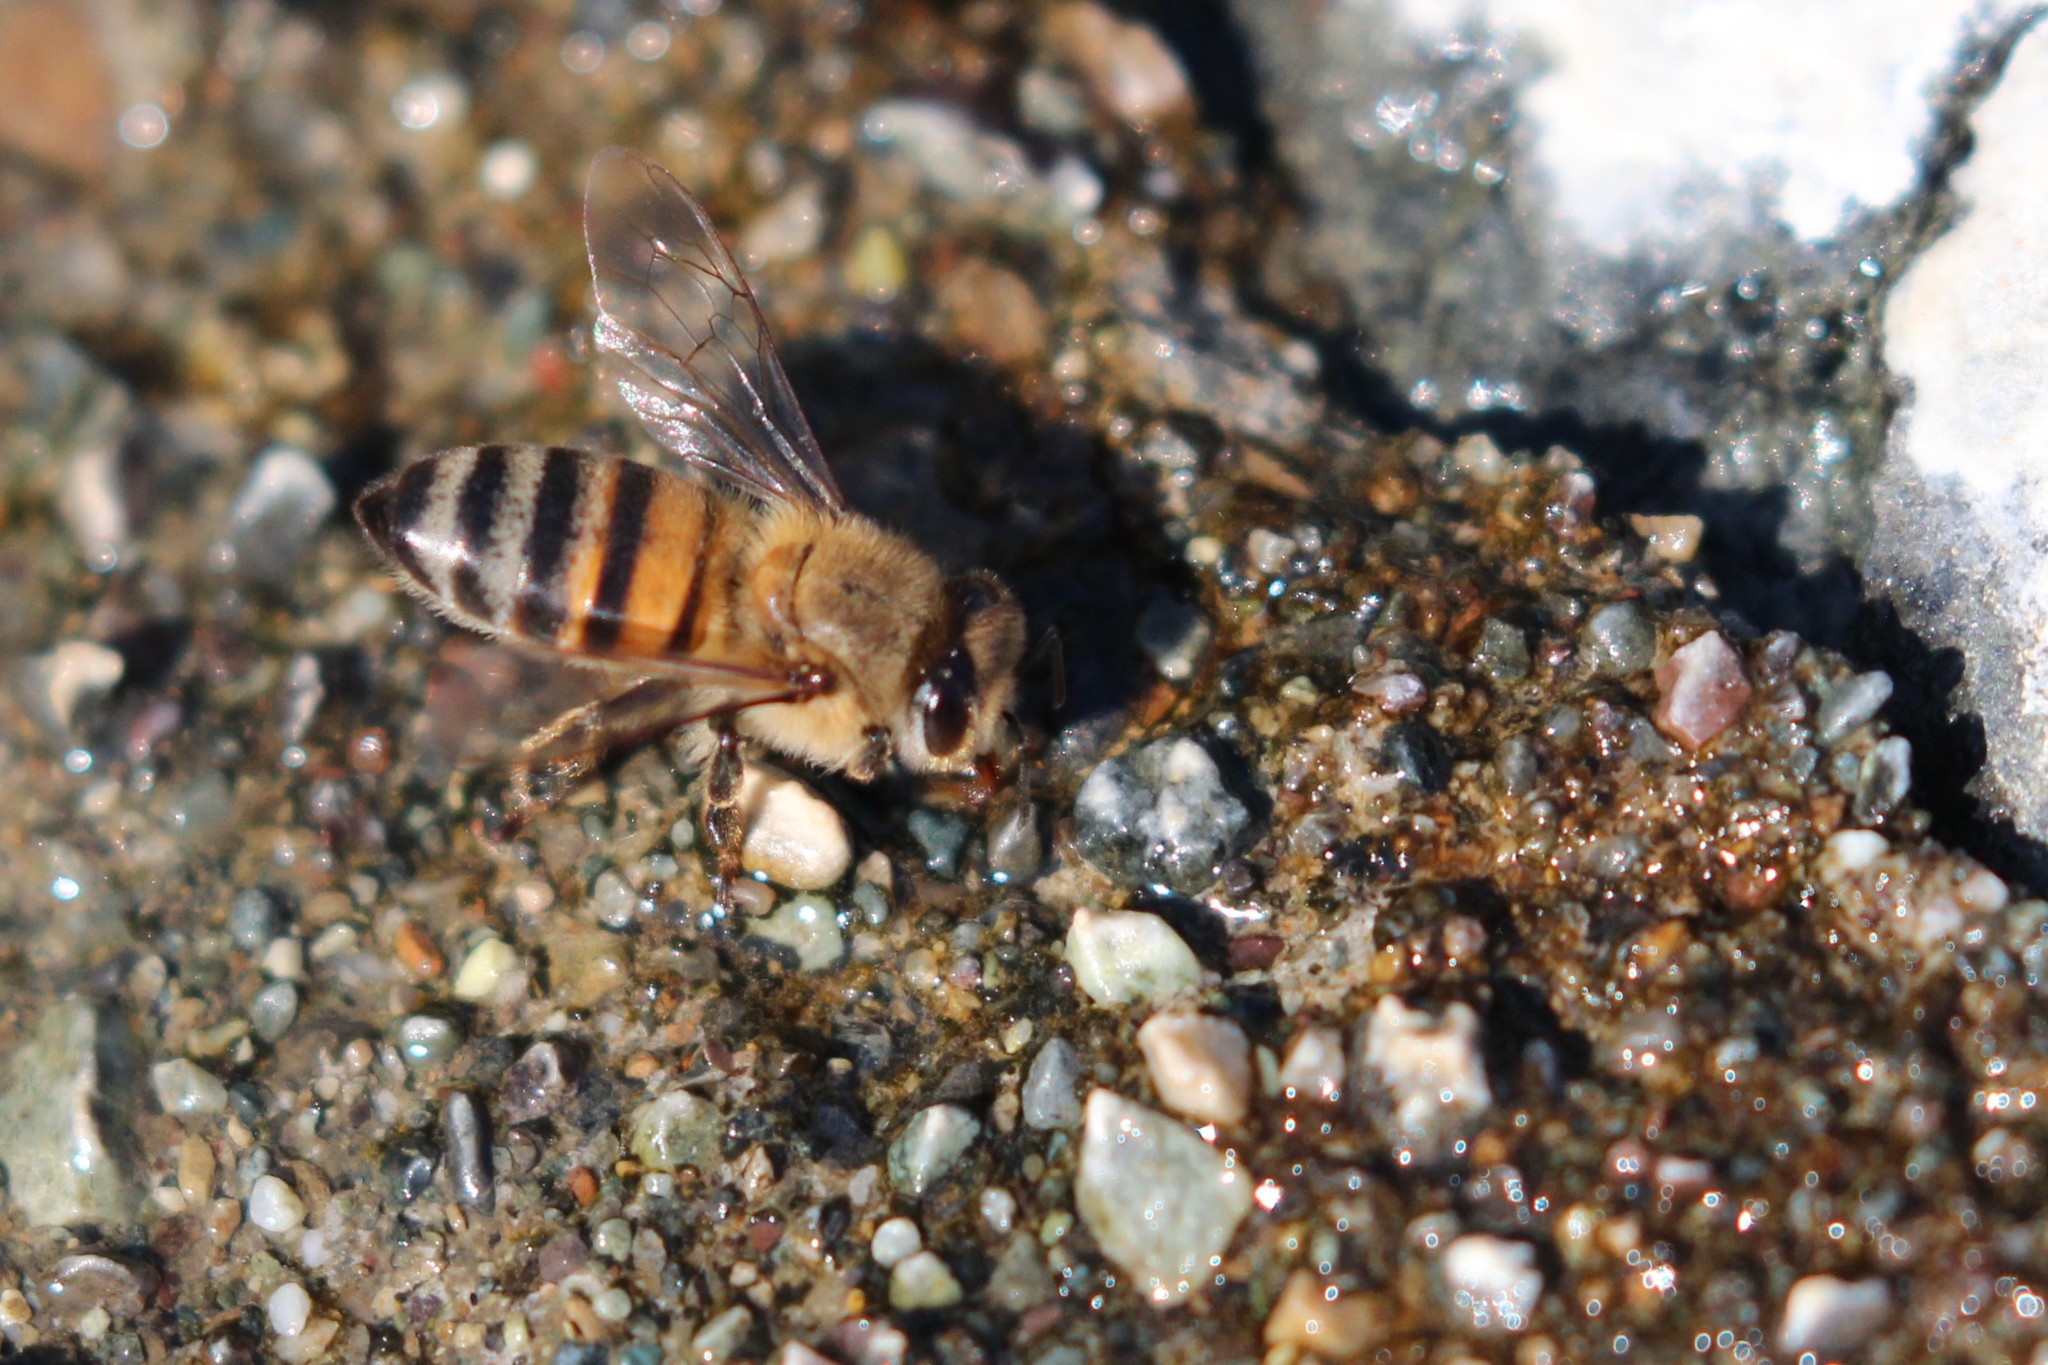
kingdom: Animalia
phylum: Arthropoda
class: Insecta
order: Hymenoptera
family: Apidae
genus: Apis
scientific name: Apis mellifera
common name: Honey bee
